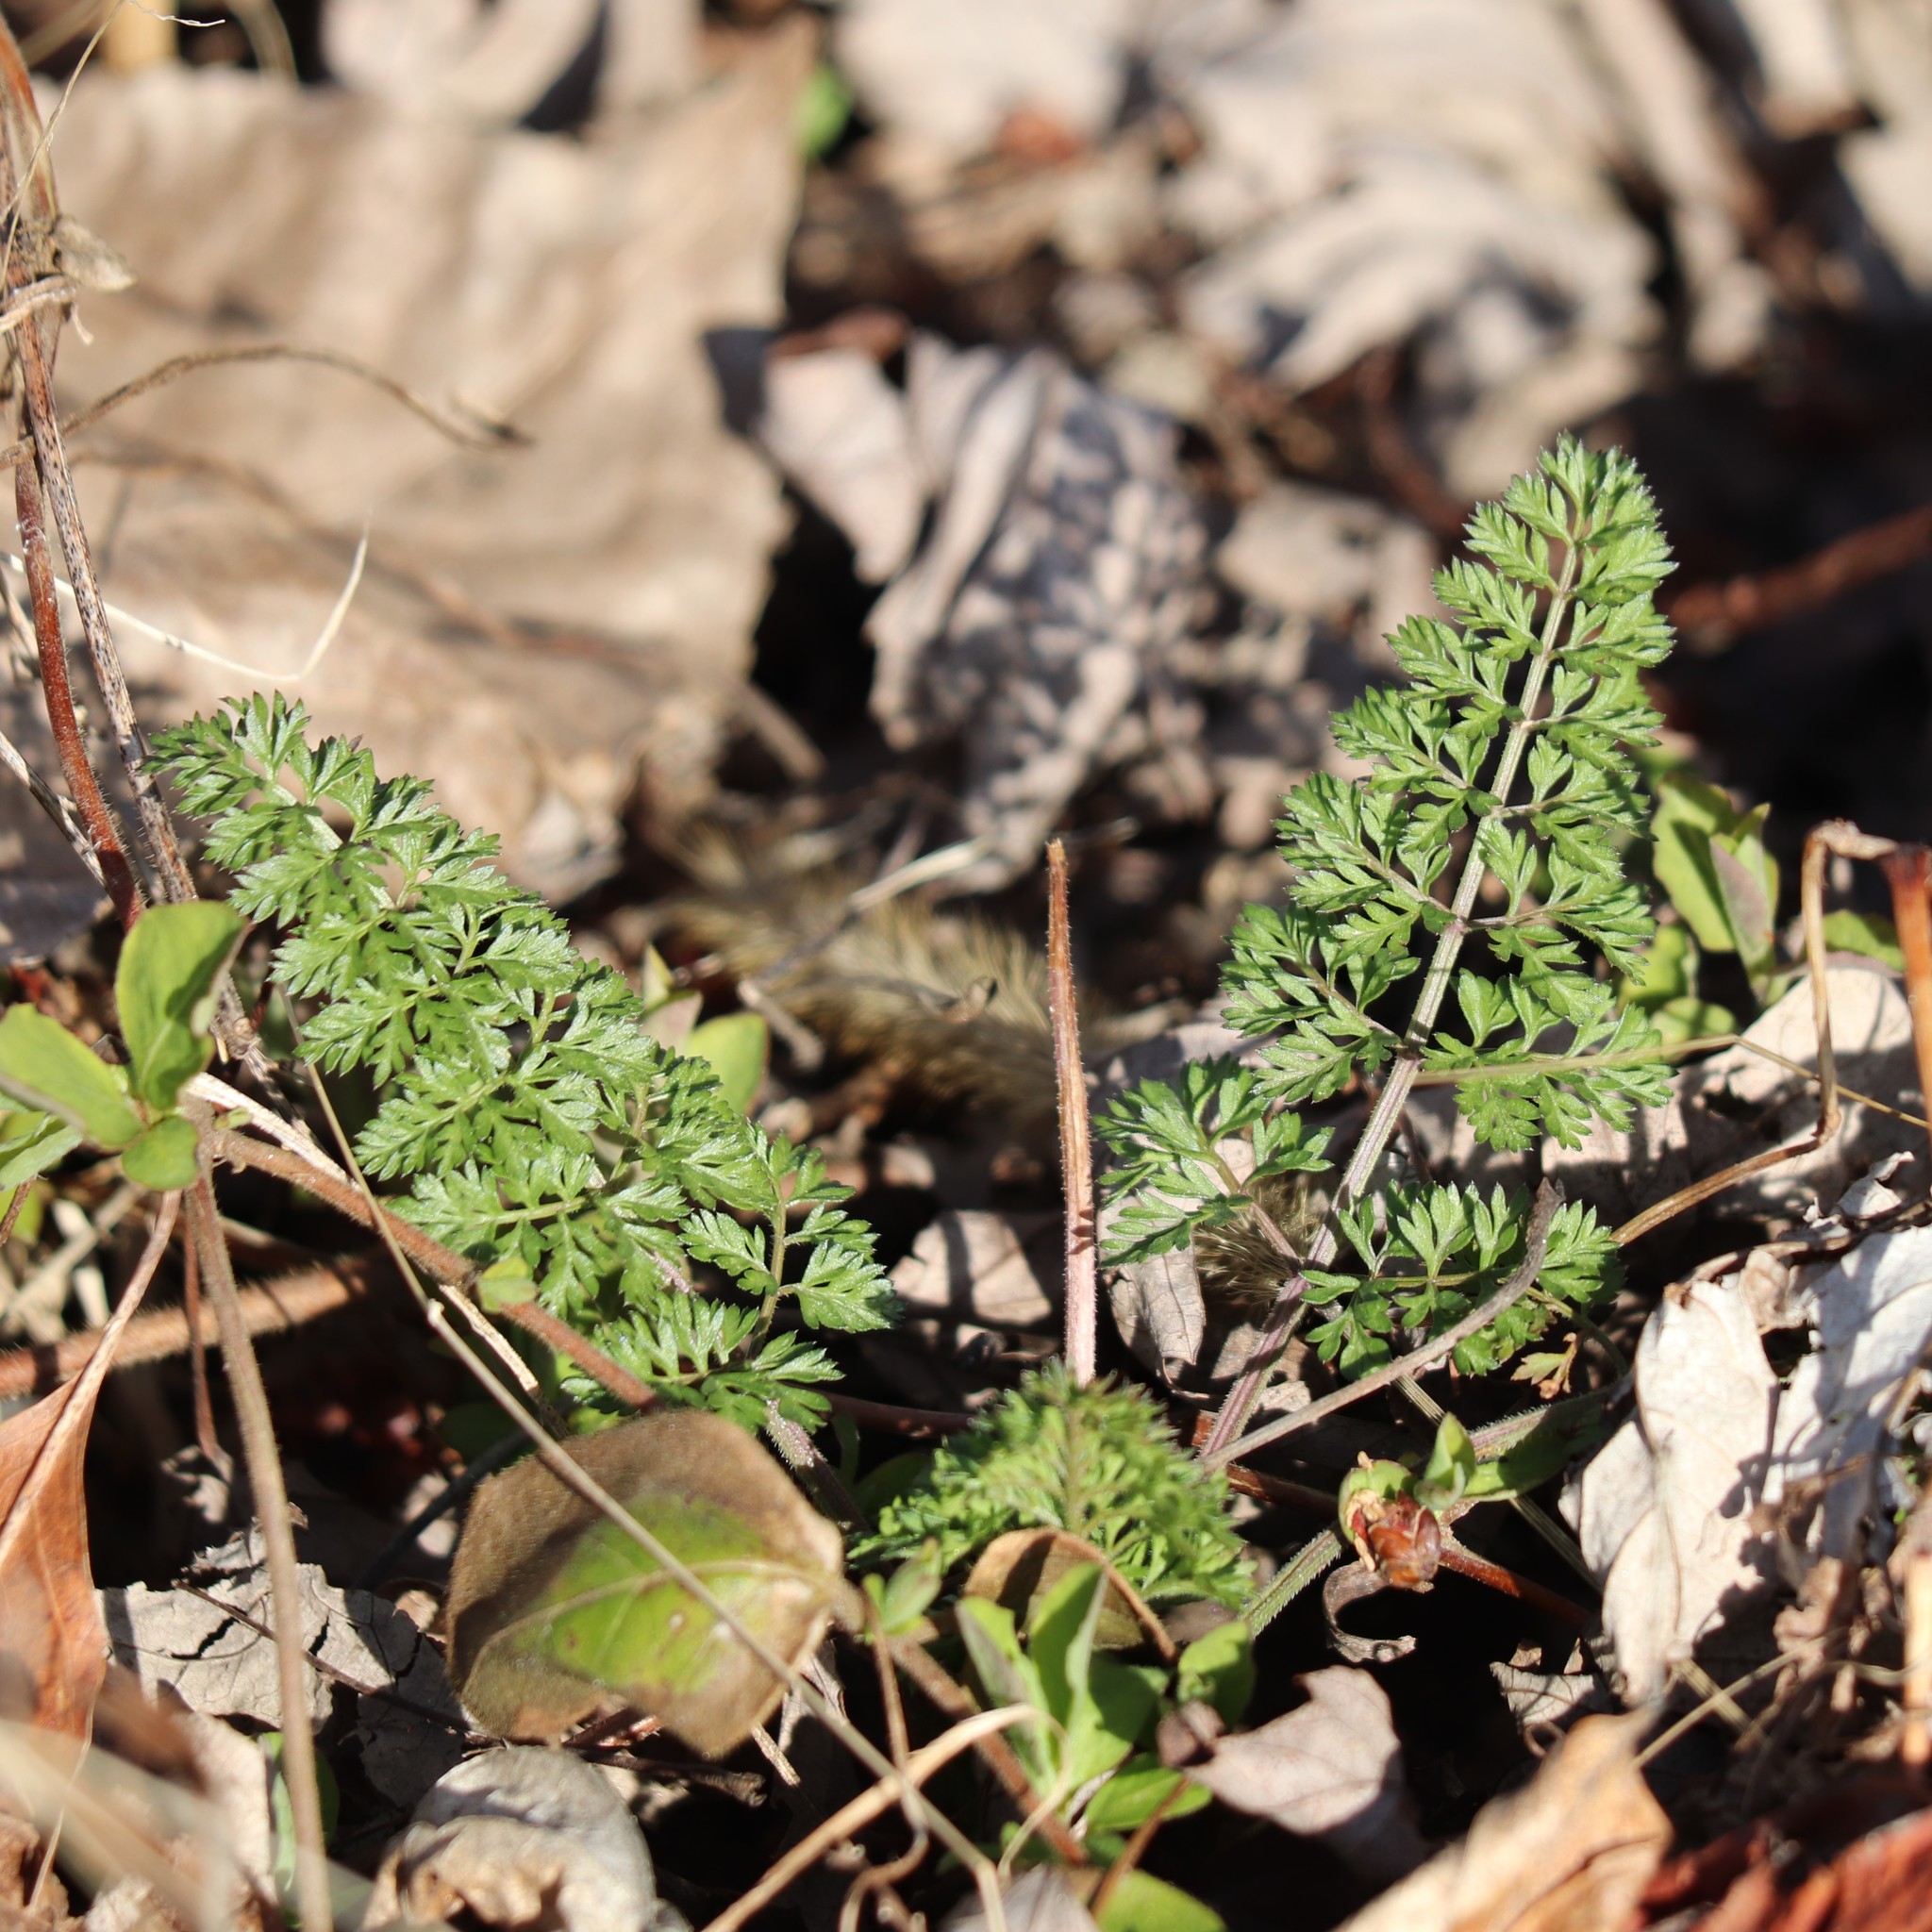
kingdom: Plantae
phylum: Tracheophyta
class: Magnoliopsida
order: Apiales
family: Apiaceae
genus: Daucus
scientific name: Daucus carota
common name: Wild carrot
